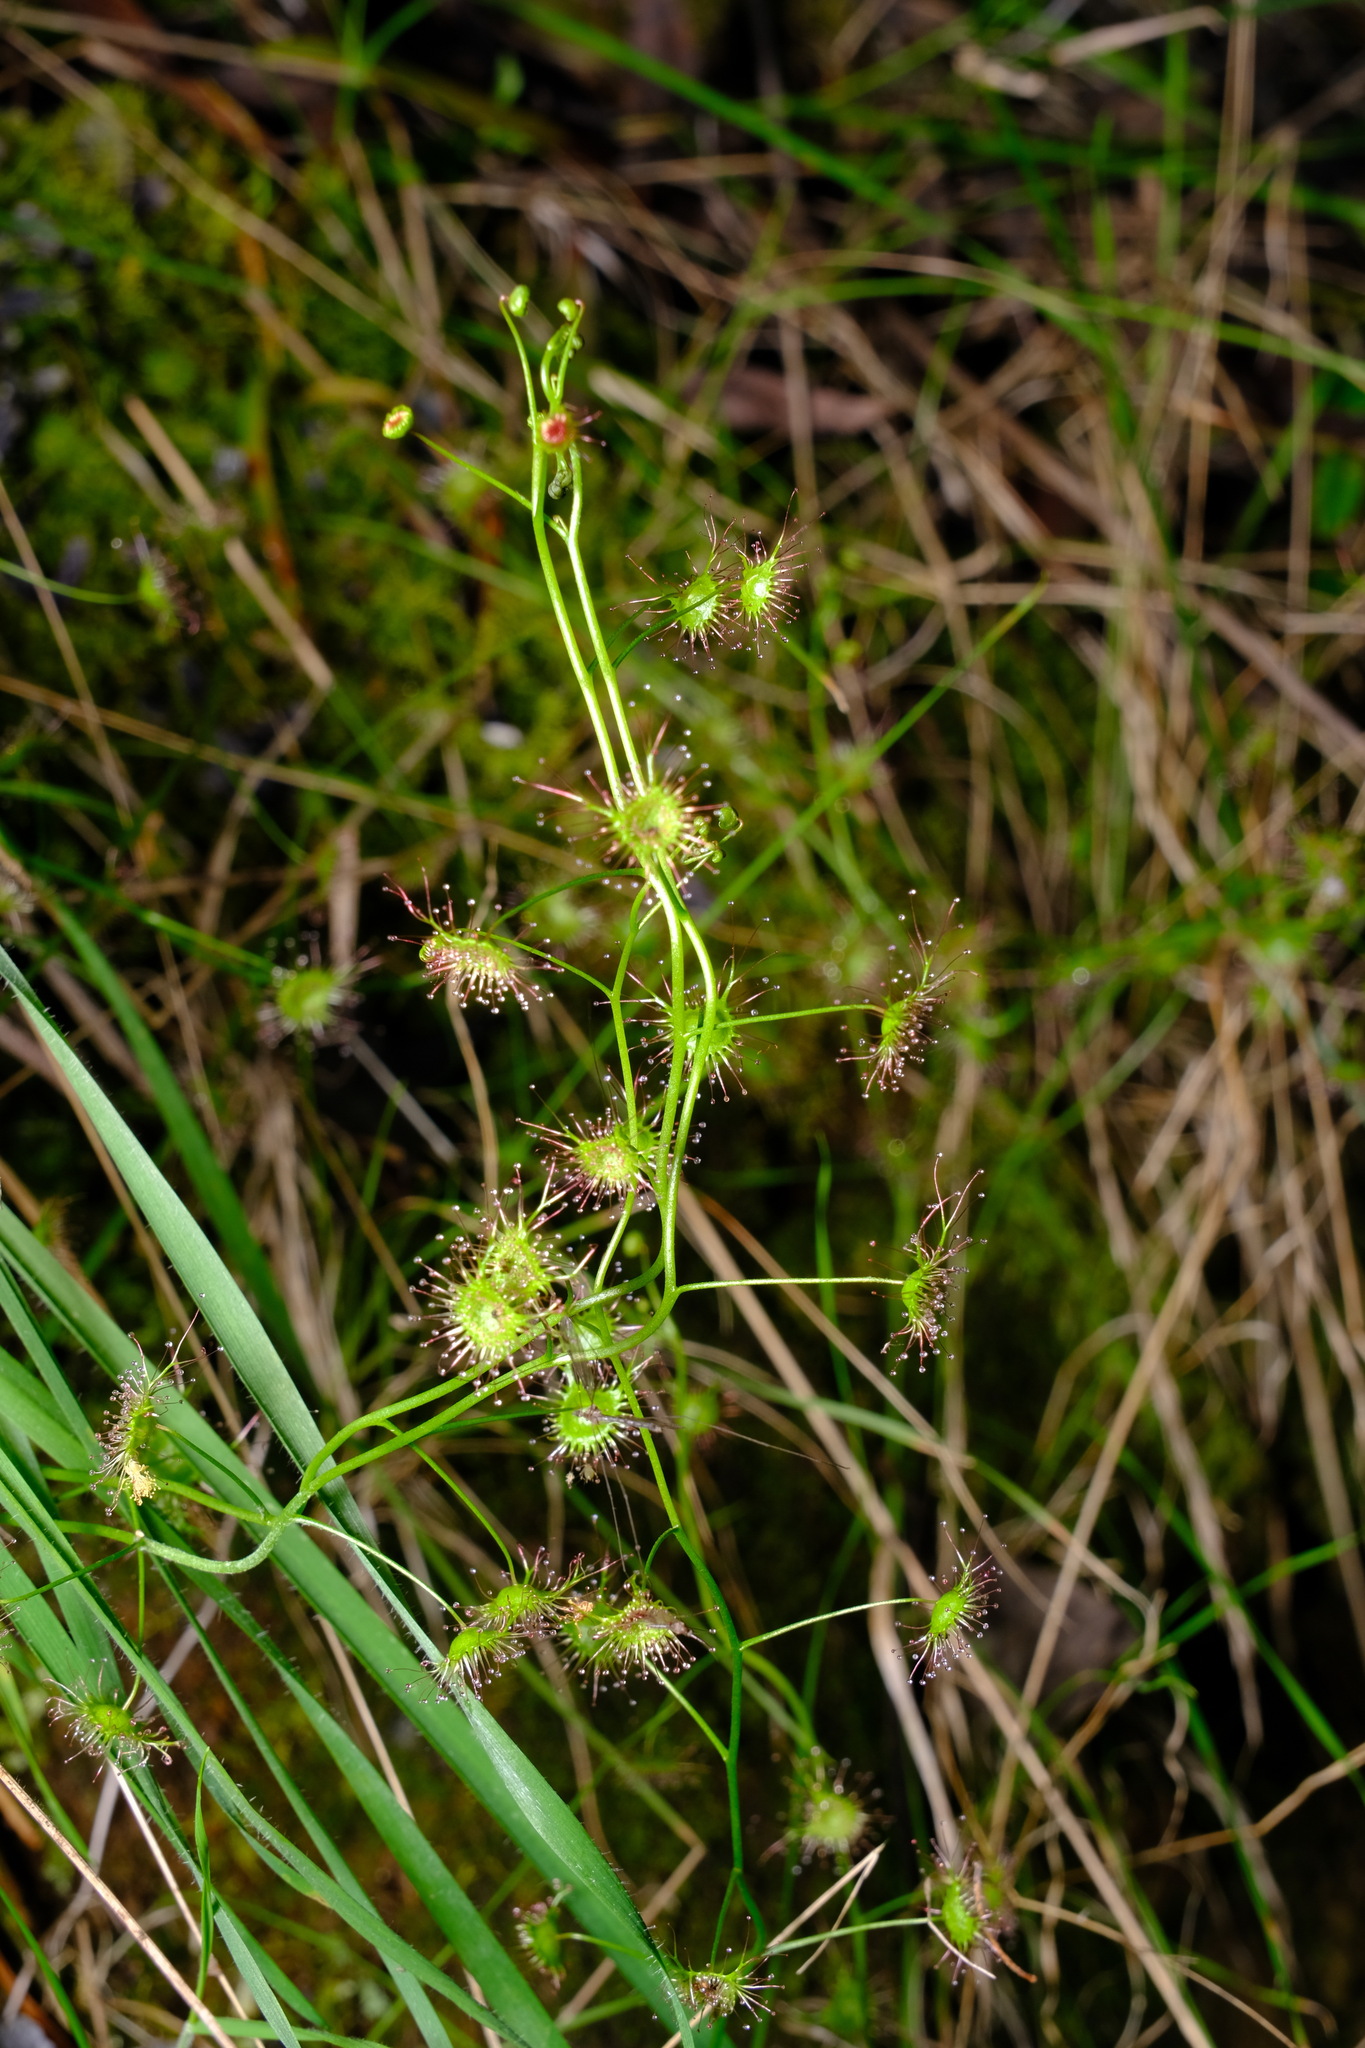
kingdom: Plantae
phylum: Tracheophyta
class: Magnoliopsida
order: Caryophyllales
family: Droseraceae
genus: Drosera
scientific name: Drosera peltata
